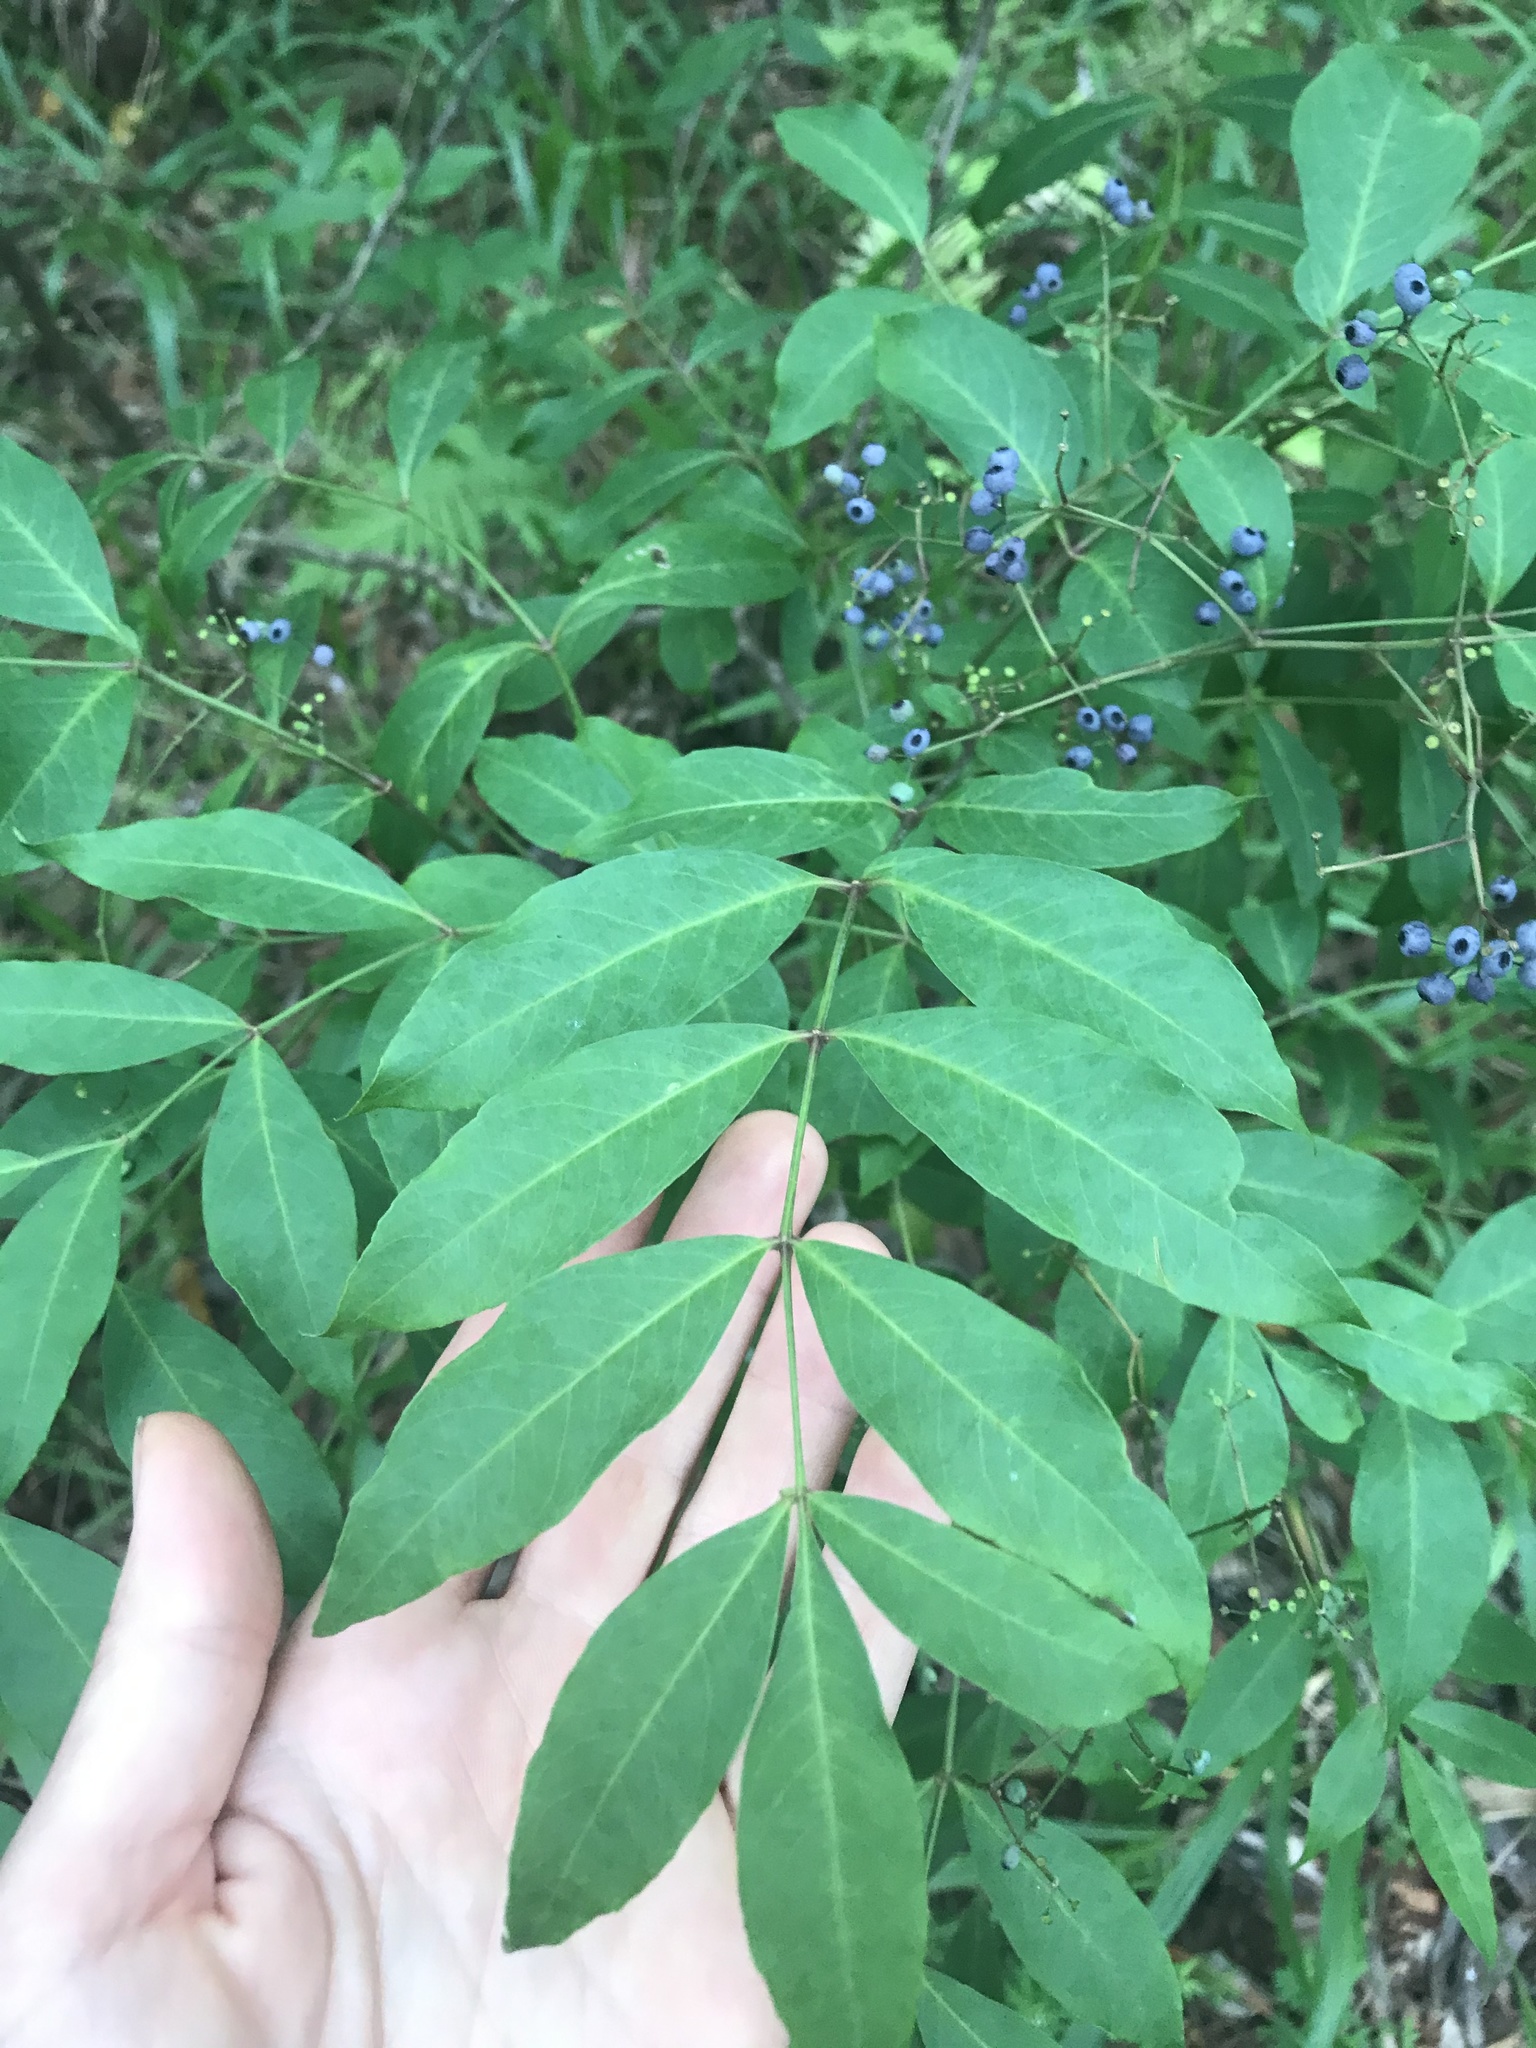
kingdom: Plantae
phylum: Tracheophyta
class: Magnoliopsida
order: Apiales
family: Araliaceae
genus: Polyscias
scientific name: Polyscias sambucifolia
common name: Elderberry-ash
